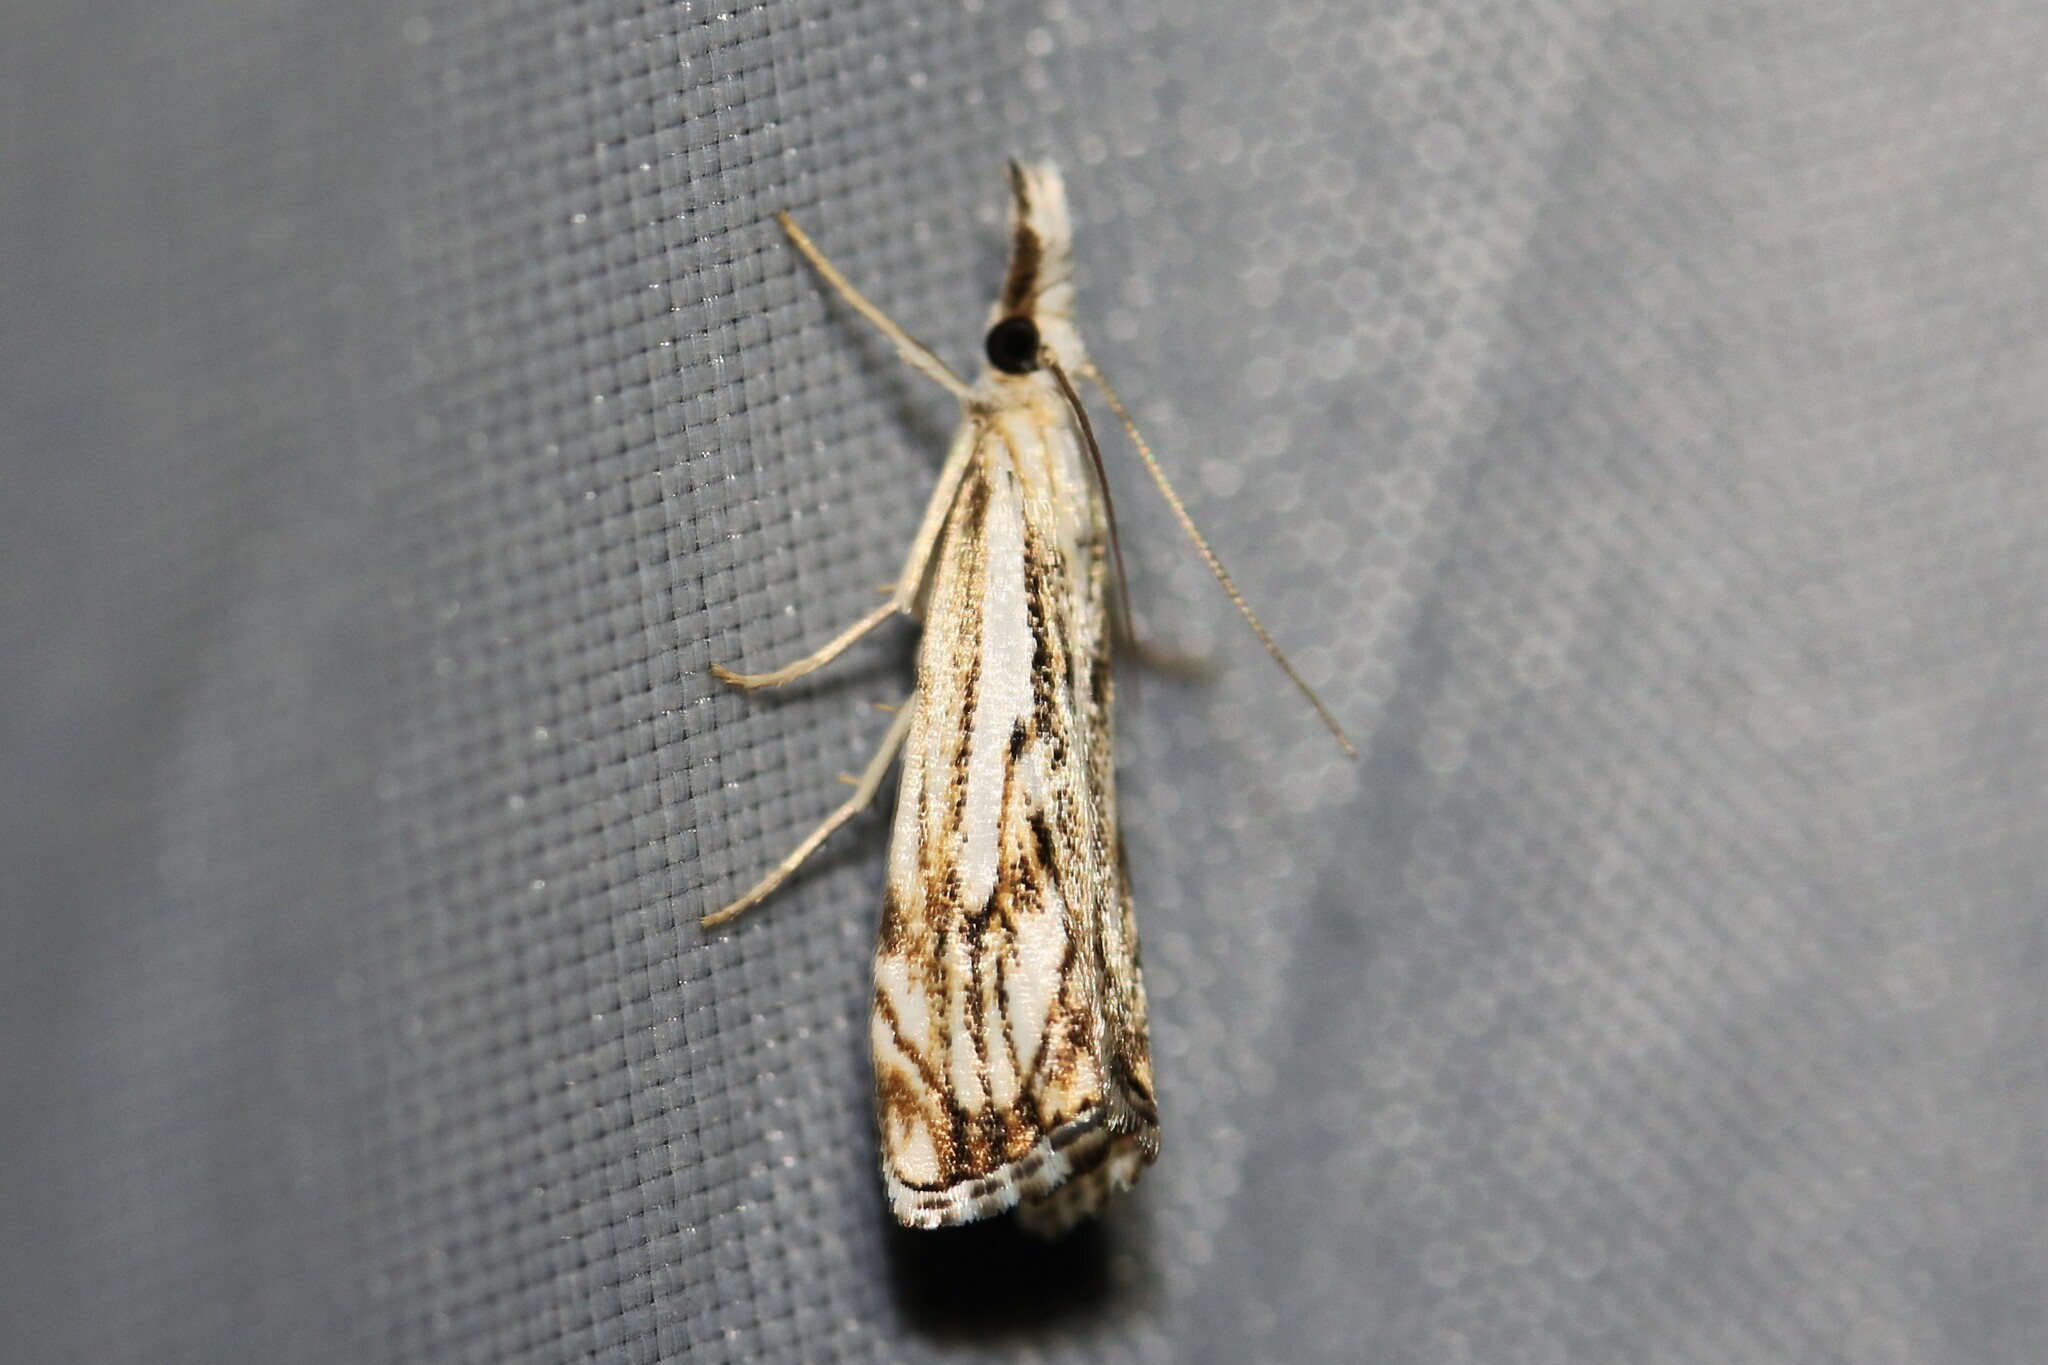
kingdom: Animalia
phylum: Arthropoda
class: Insecta
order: Lepidoptera
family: Crambidae
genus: Catoptria
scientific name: Catoptria falsella
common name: Chequered grass-veneer
